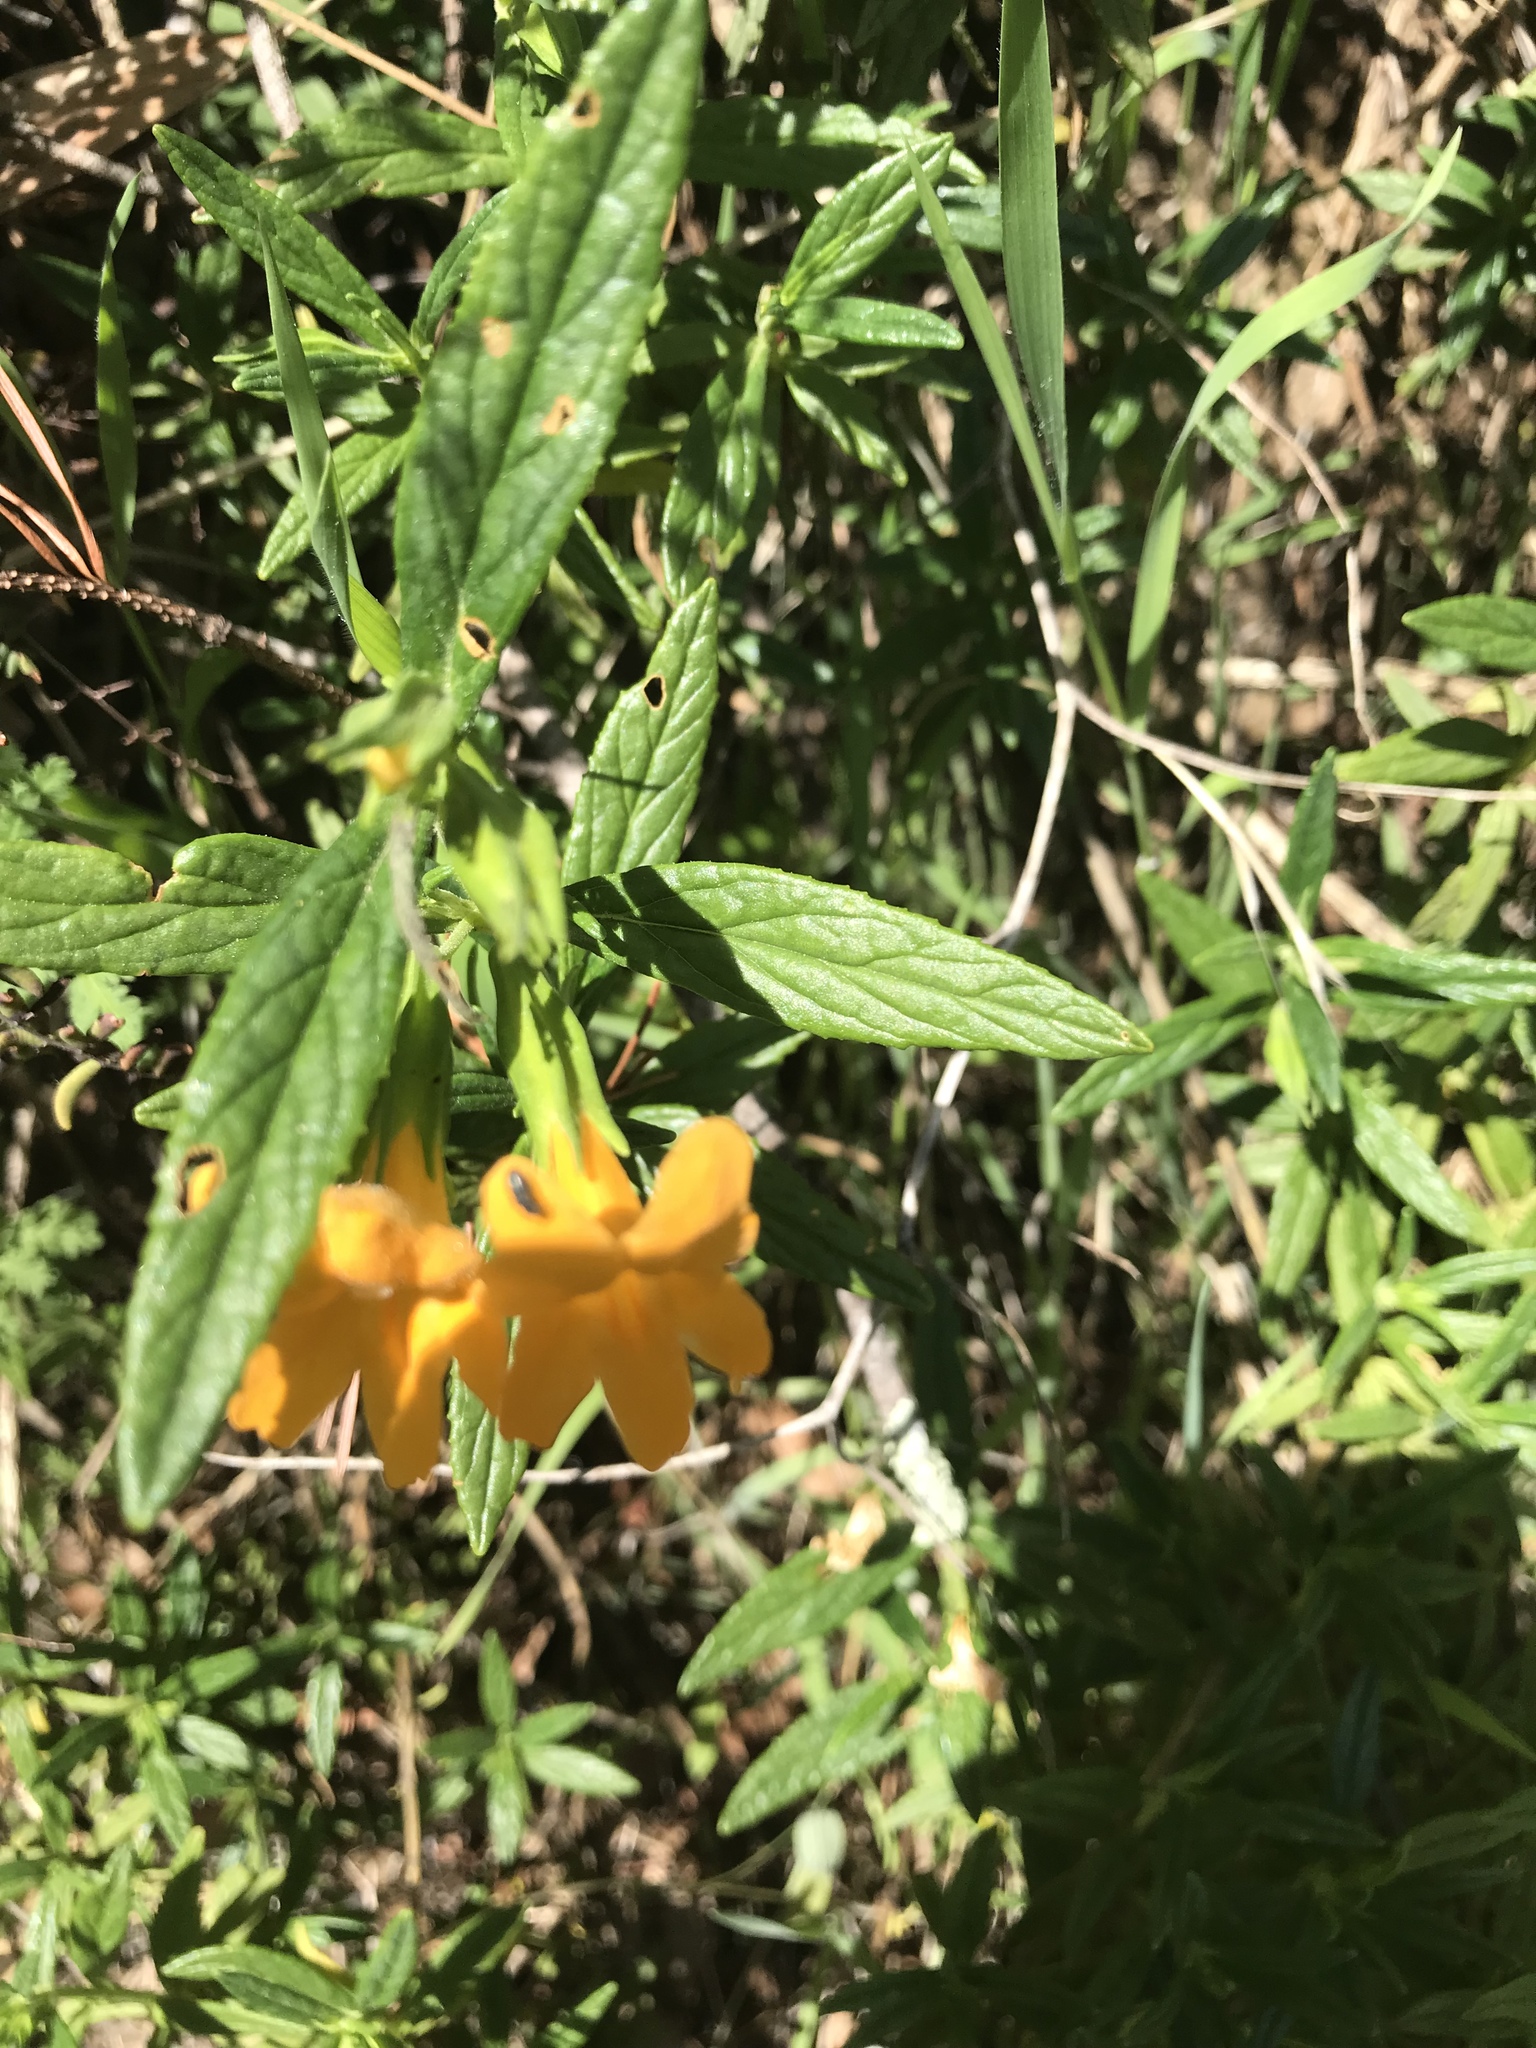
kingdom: Plantae
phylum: Tracheophyta
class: Magnoliopsida
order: Lamiales
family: Phrymaceae
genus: Diplacus
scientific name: Diplacus aurantiacus
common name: Bush monkey-flower
